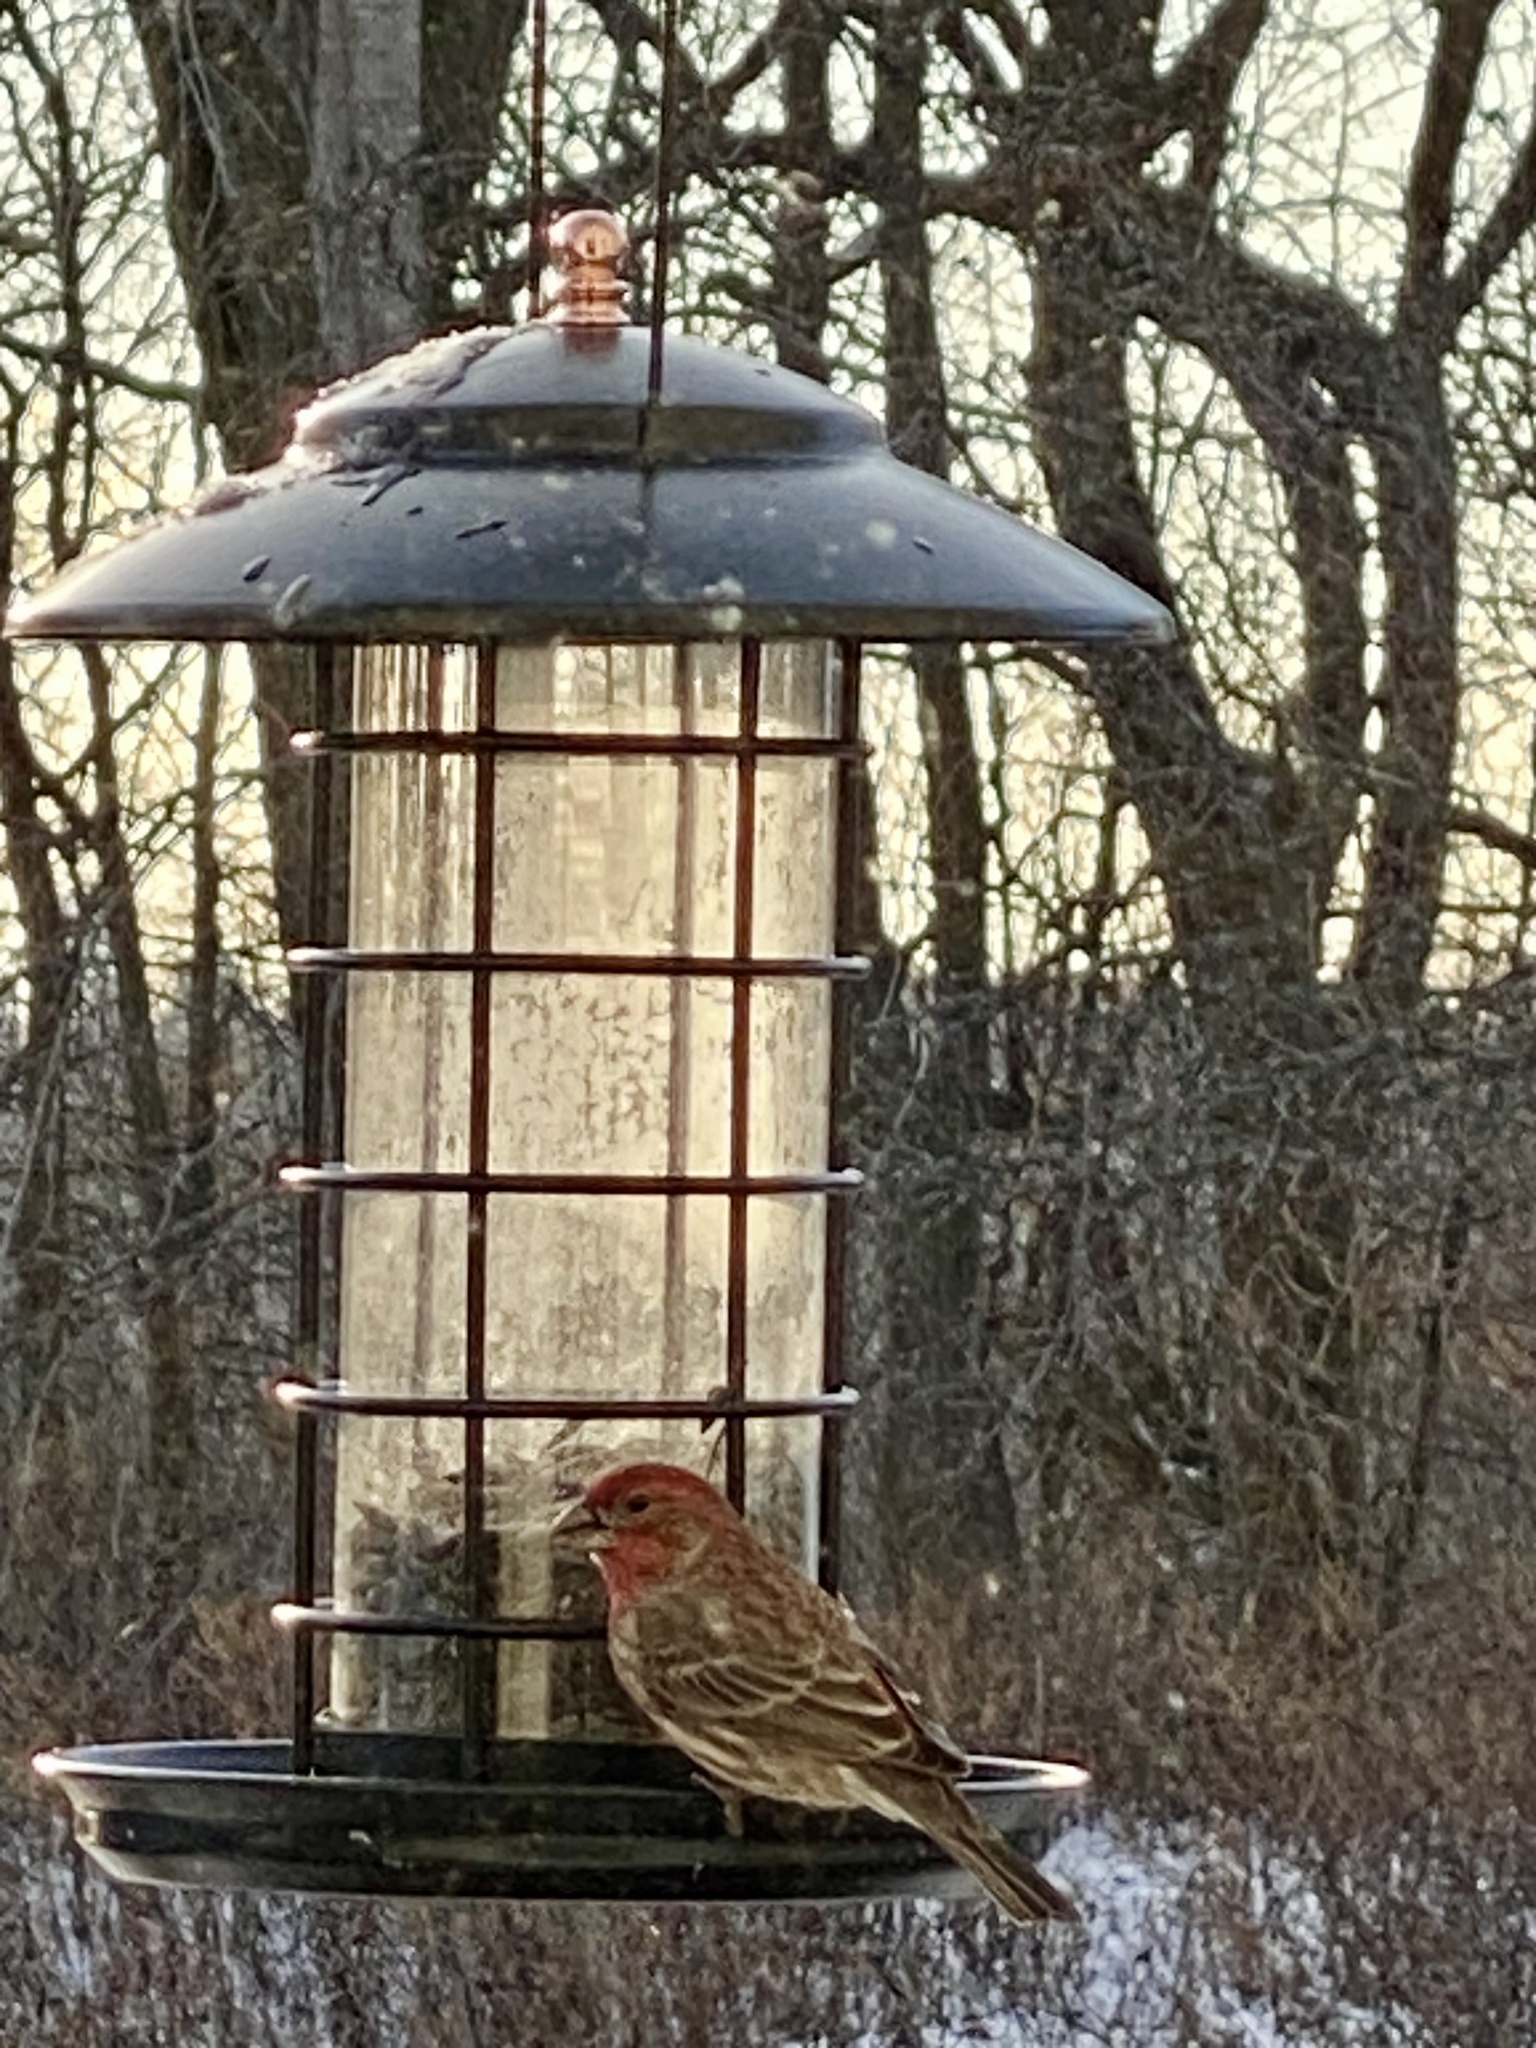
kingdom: Animalia
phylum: Chordata
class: Aves
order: Passeriformes
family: Fringillidae
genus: Haemorhous
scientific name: Haemorhous mexicanus
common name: House finch
